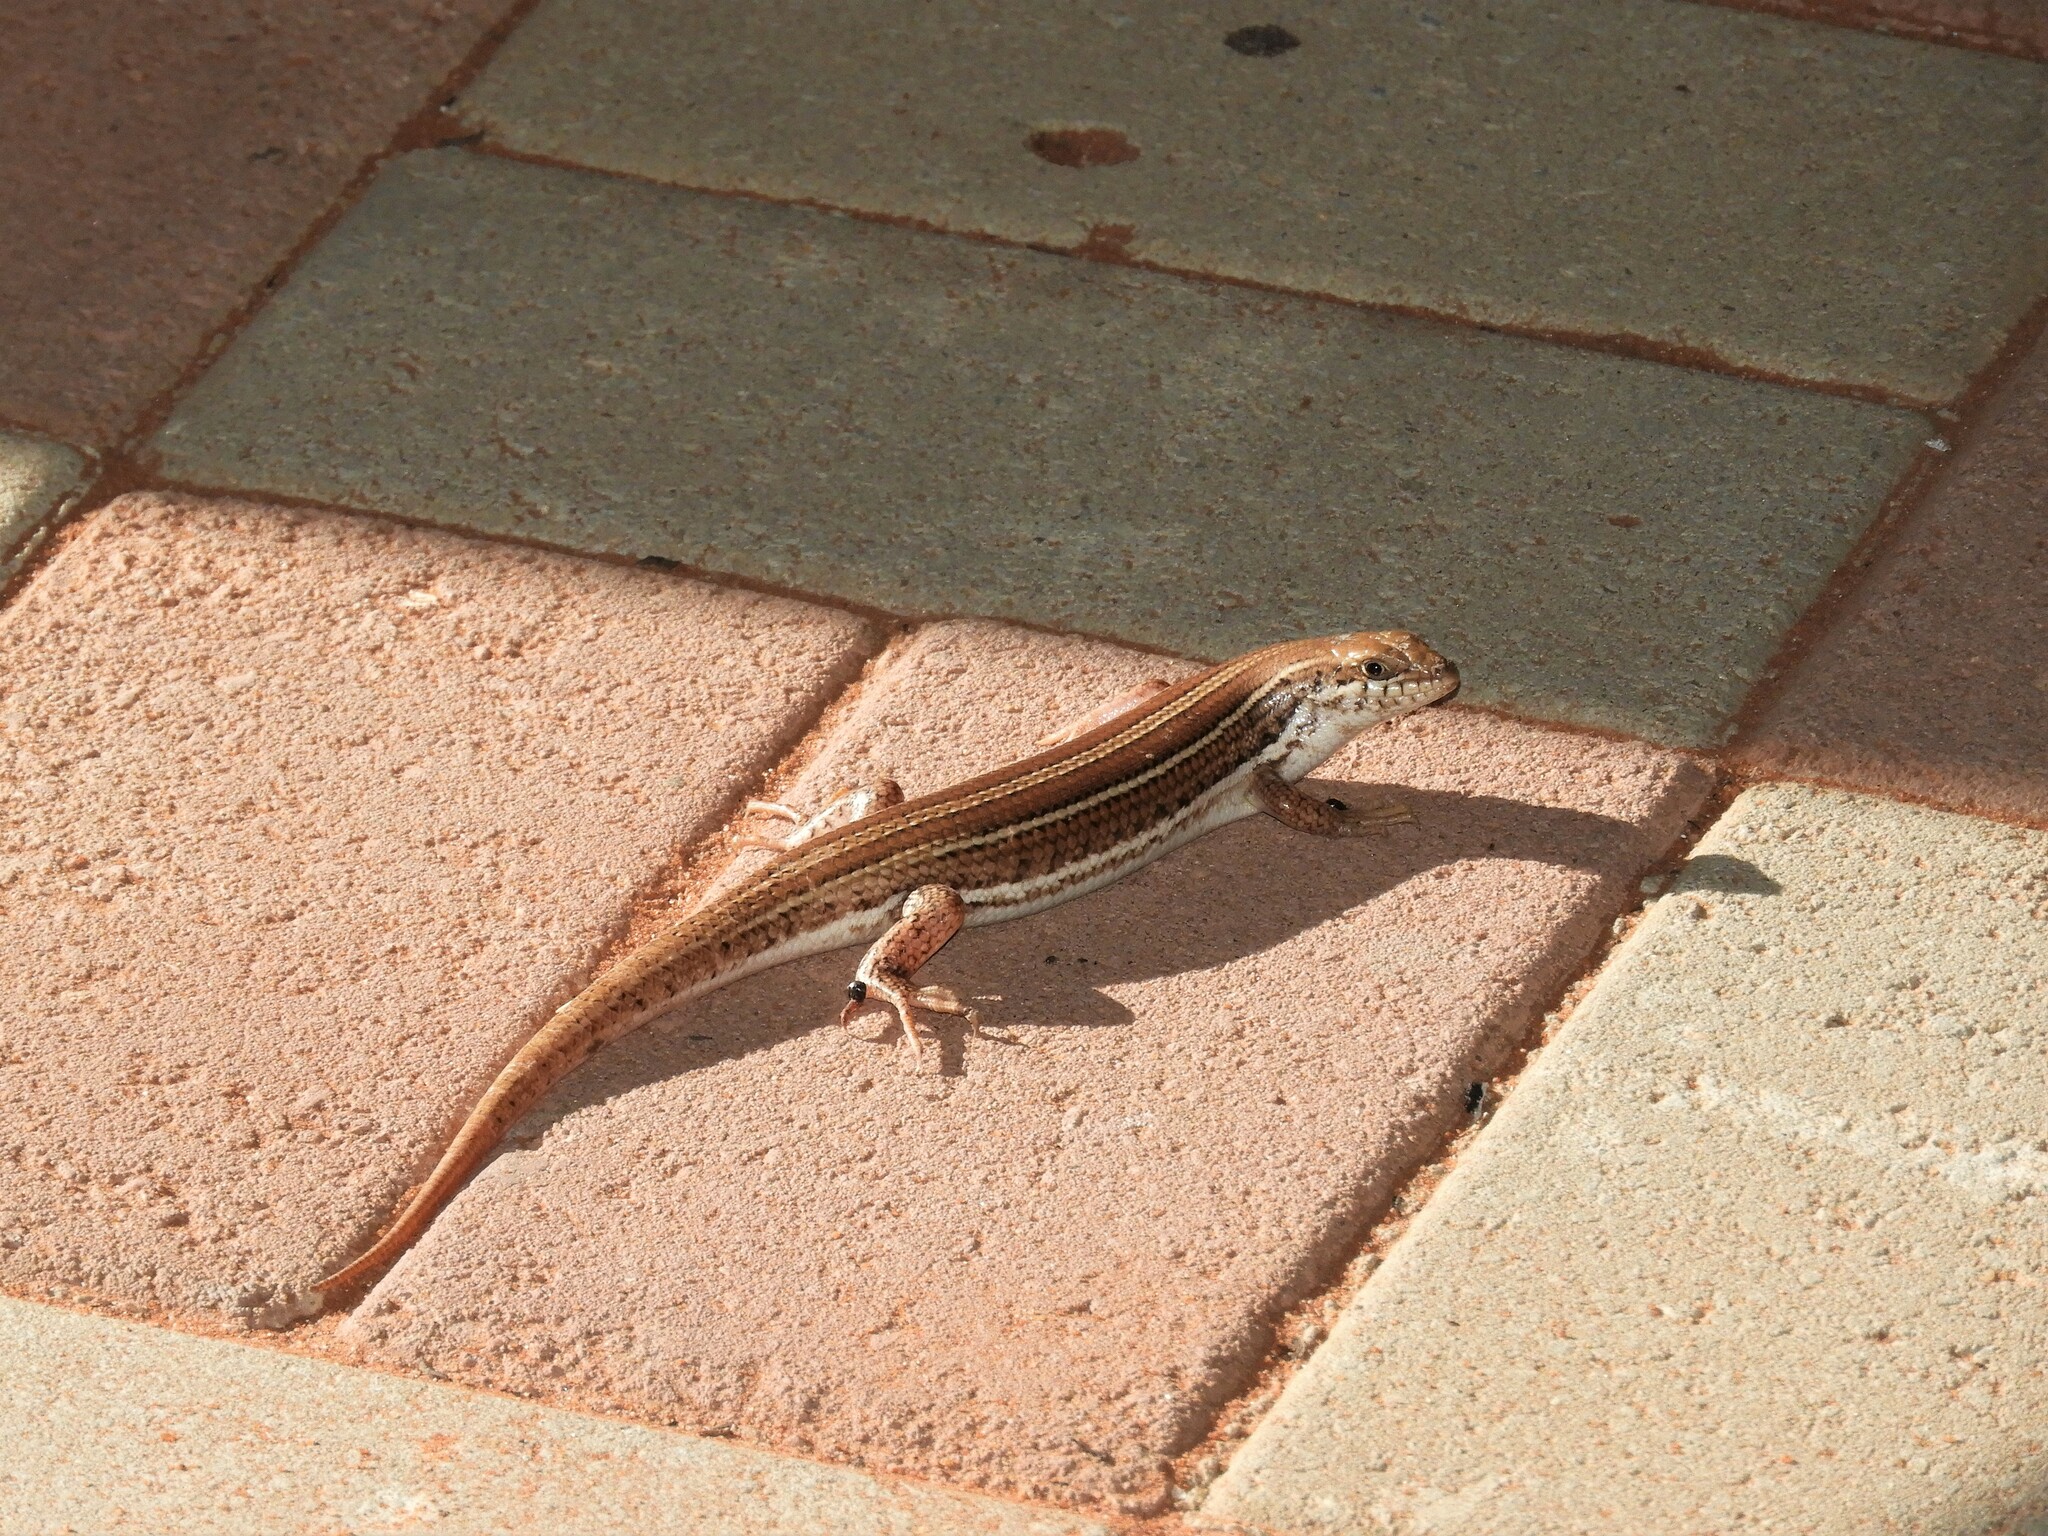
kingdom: Animalia
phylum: Chordata
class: Squamata
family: Scincidae
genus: Trachylepis
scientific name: Trachylepis occidentalis
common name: Western three-striped skink
